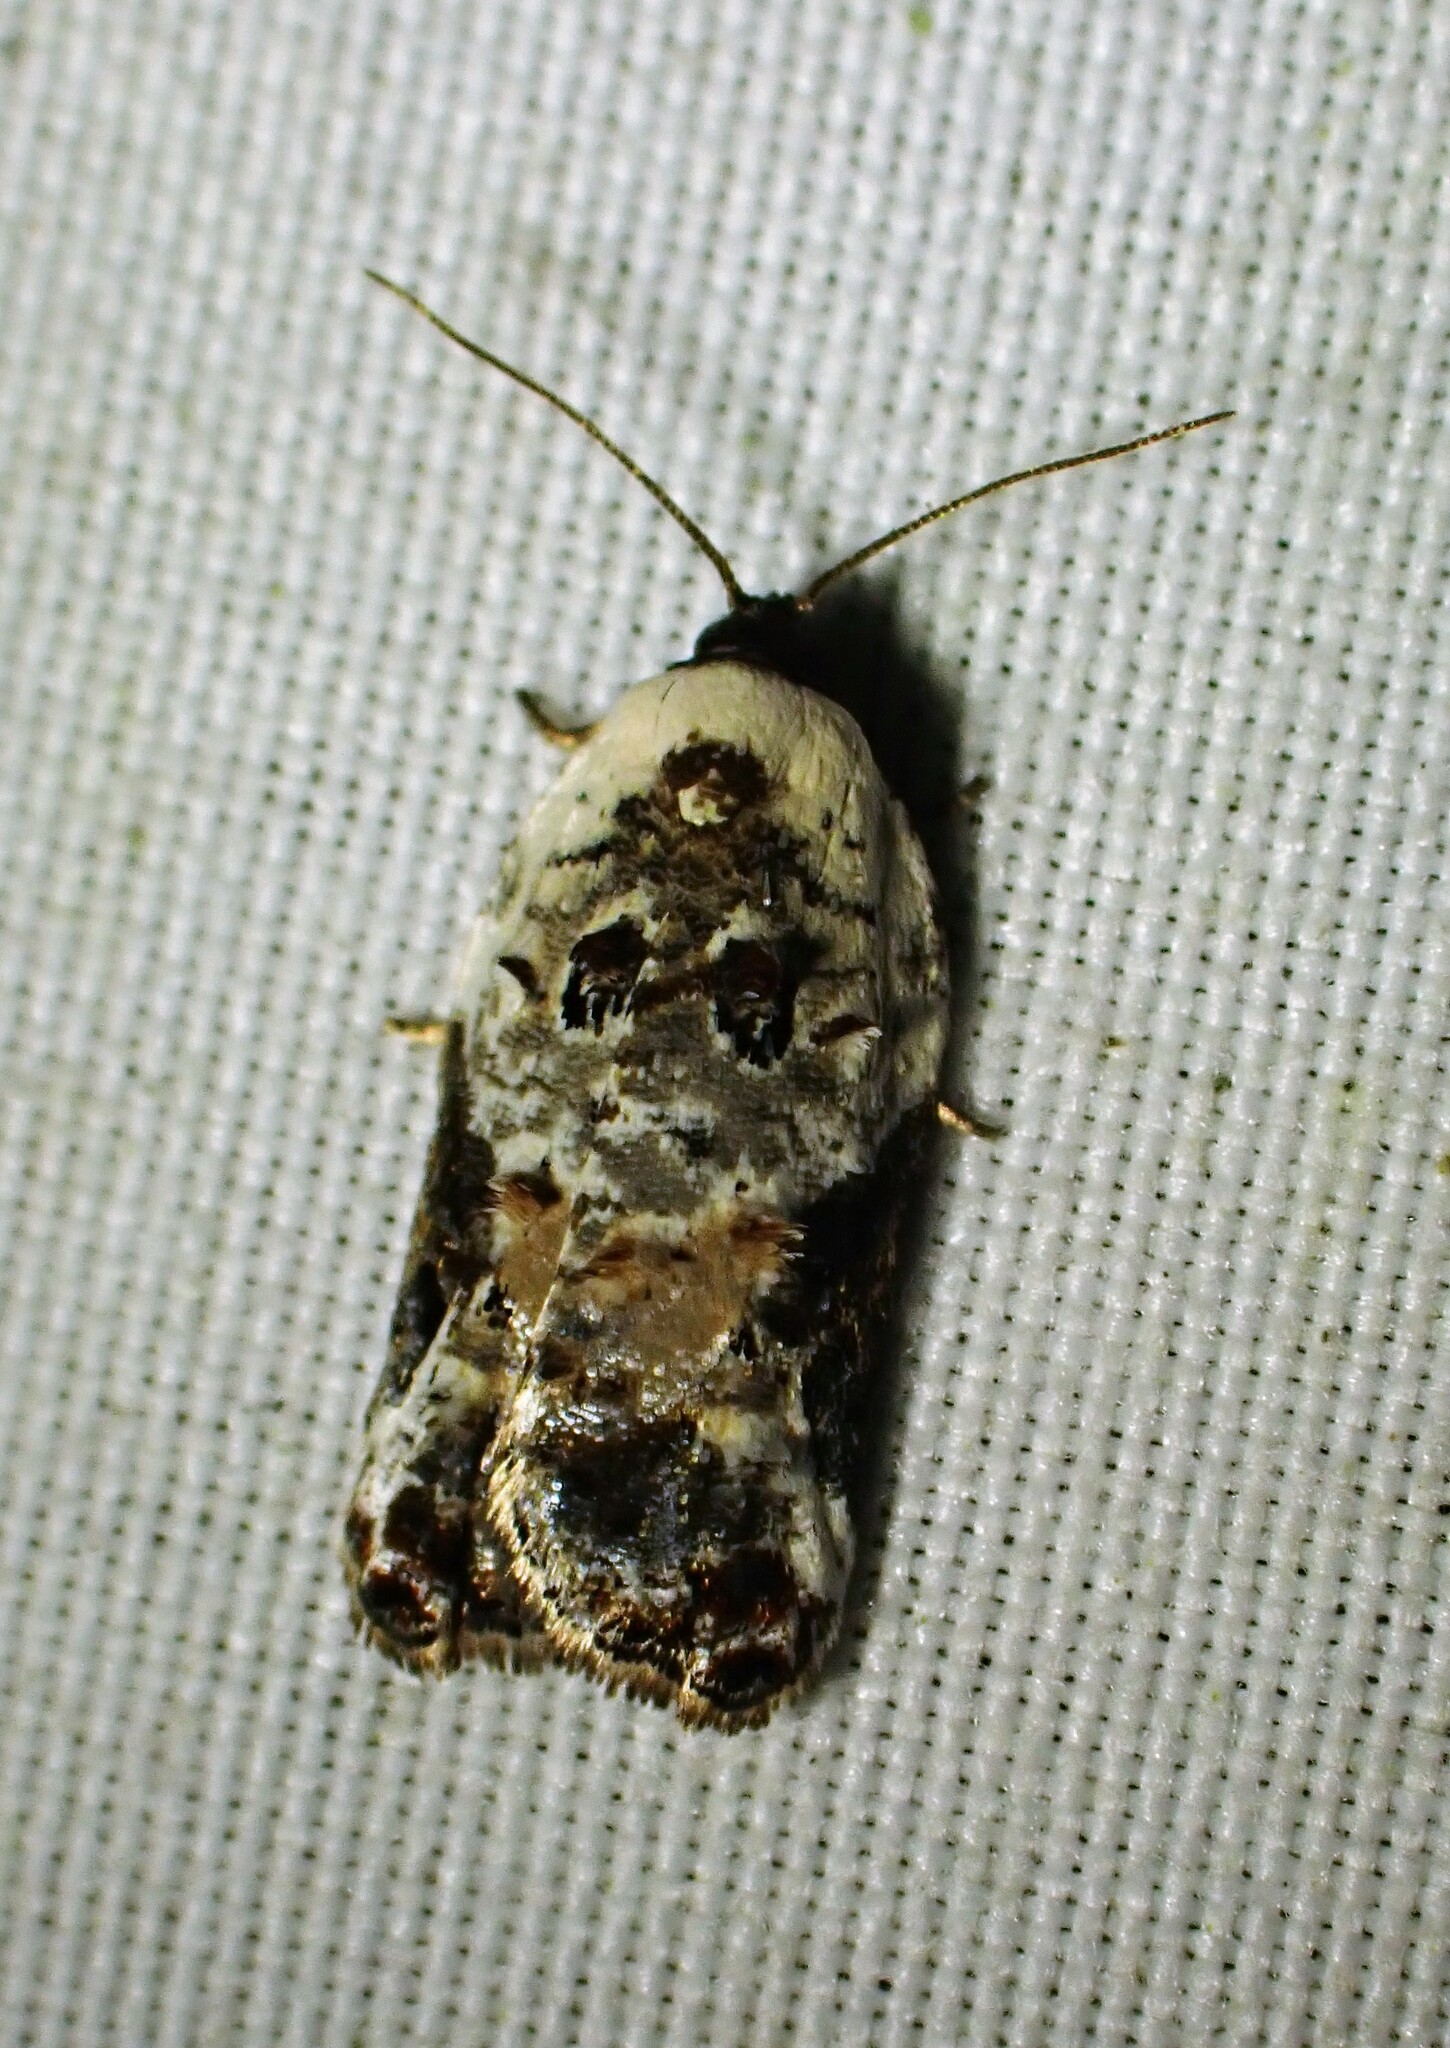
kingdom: Animalia
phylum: Arthropoda
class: Insecta
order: Lepidoptera
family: Tortricidae
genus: Acleris
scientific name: Acleris nivisellana
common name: Snowy-shouldered acleris moth
